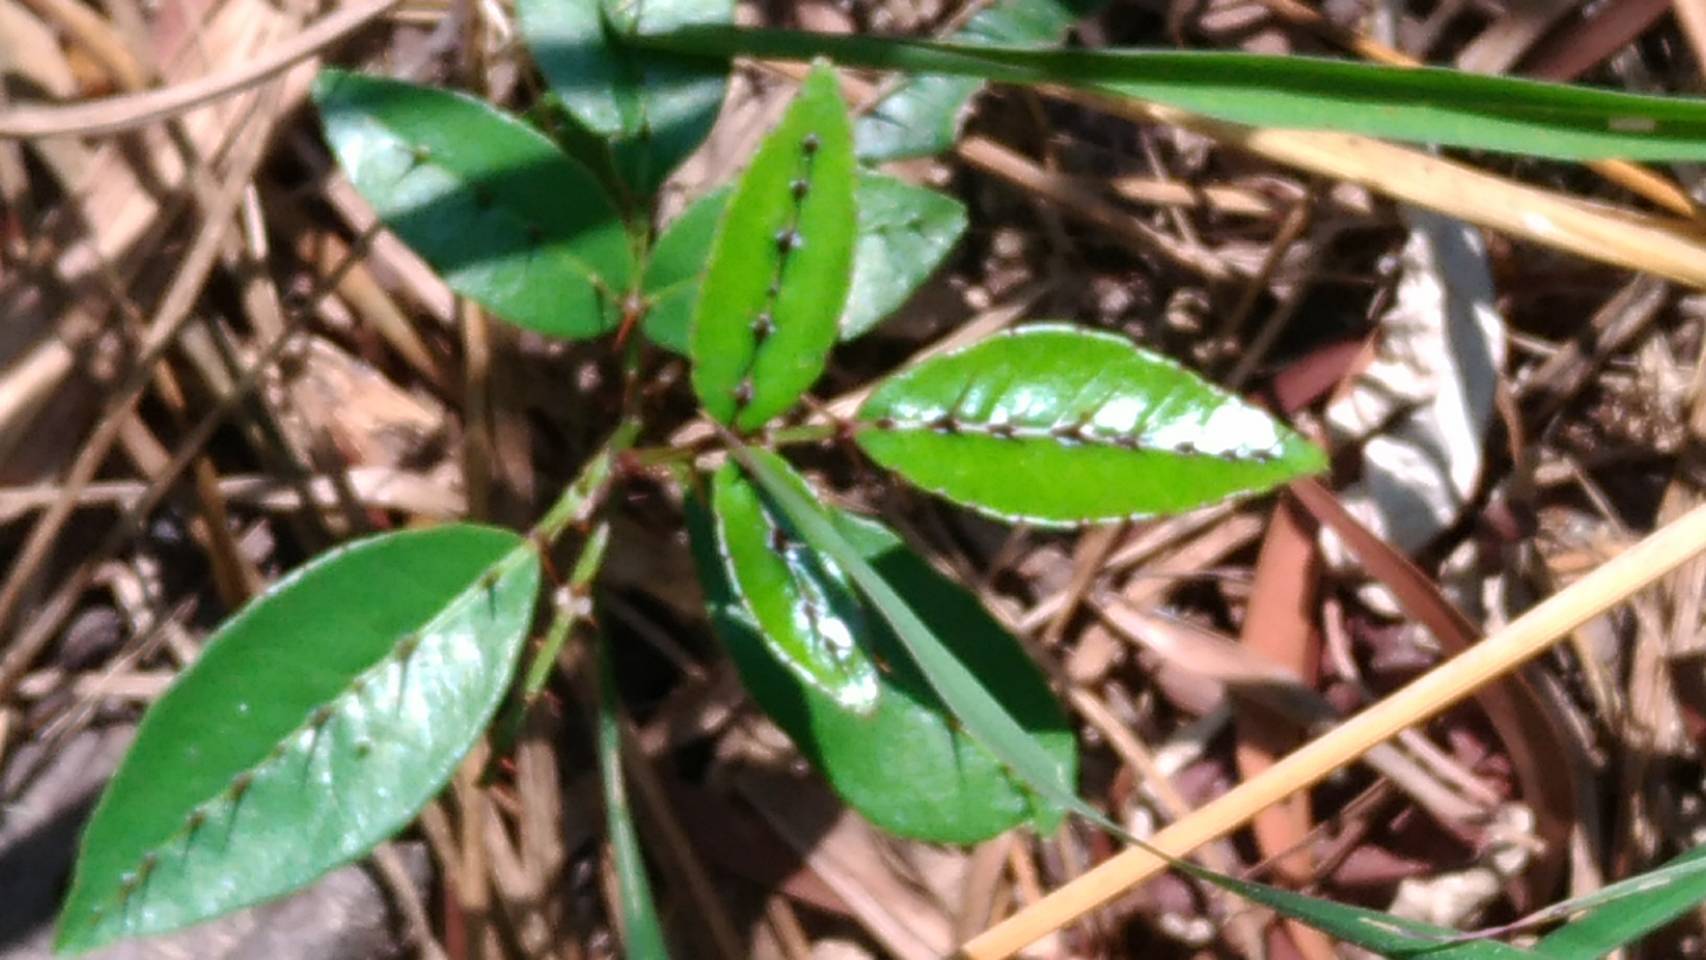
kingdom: Plantae
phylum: Tracheophyta
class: Magnoliopsida
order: Sapindales
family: Rutaceae
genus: Zanthoxylum
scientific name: Zanthoxylum nitidum
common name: Shiny-leaf prickly-ash
